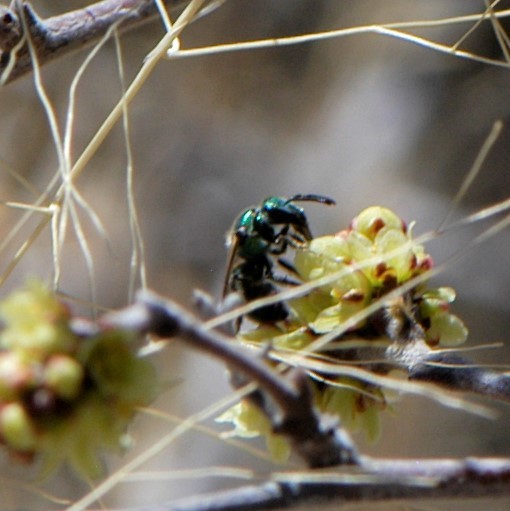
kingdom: Animalia
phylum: Arthropoda
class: Insecta
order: Hymenoptera
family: Halictidae
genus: Augochlorella
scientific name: Augochlorella
